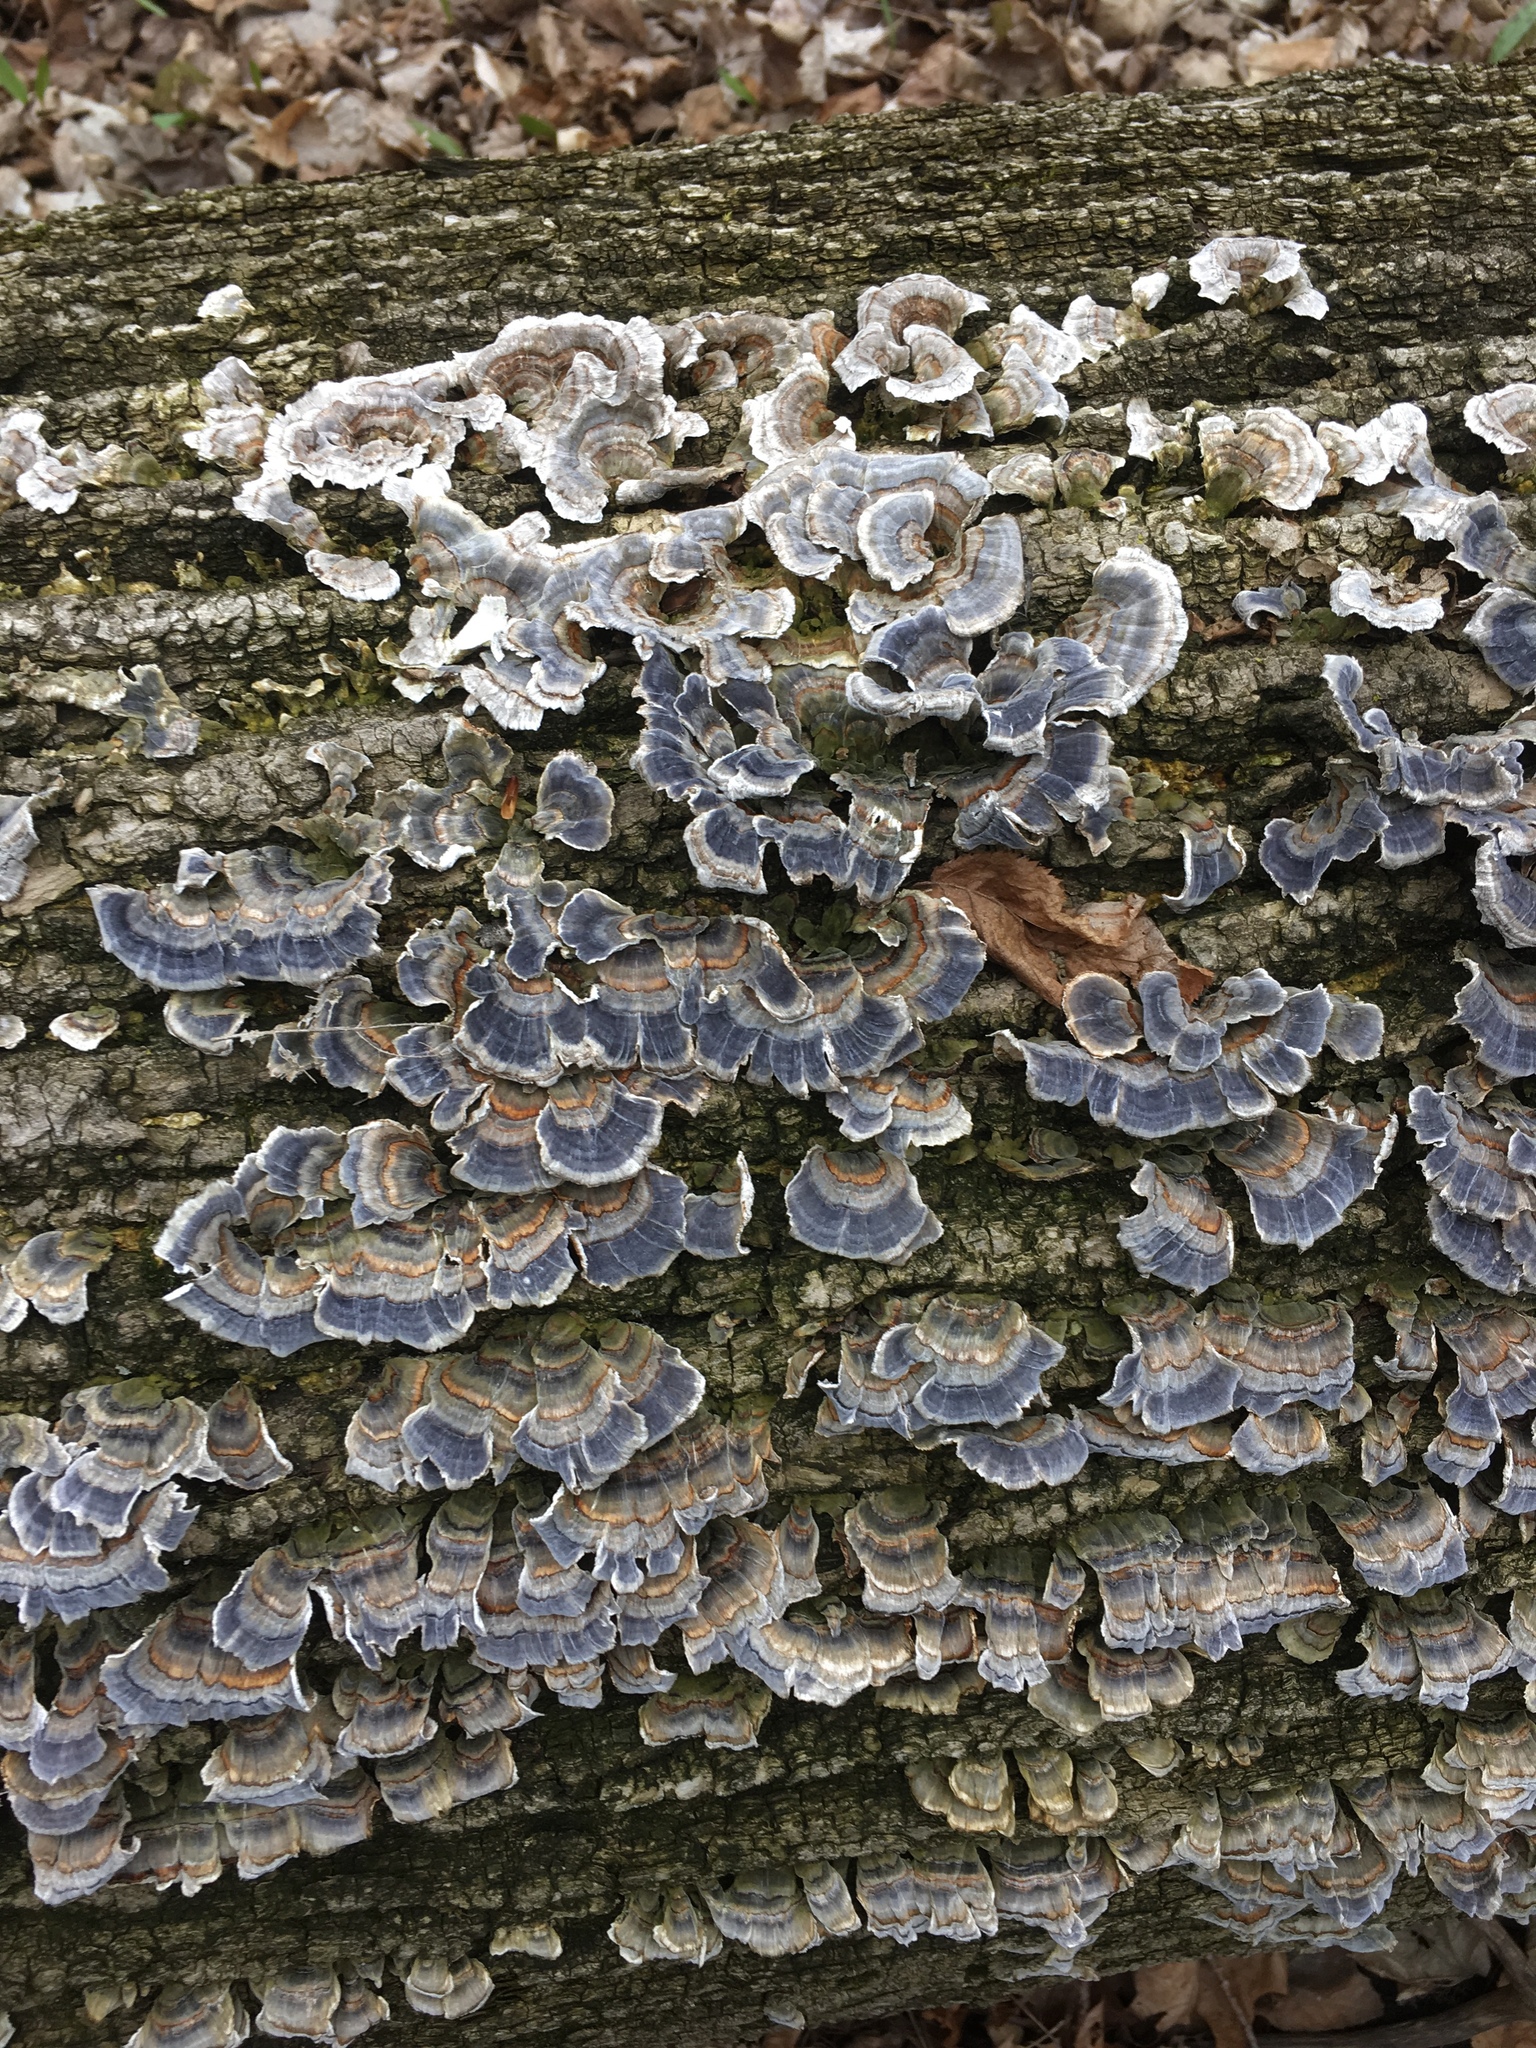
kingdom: Fungi
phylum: Basidiomycota
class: Agaricomycetes
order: Polyporales
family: Polyporaceae
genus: Trametes
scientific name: Trametes versicolor
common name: Turkeytail
